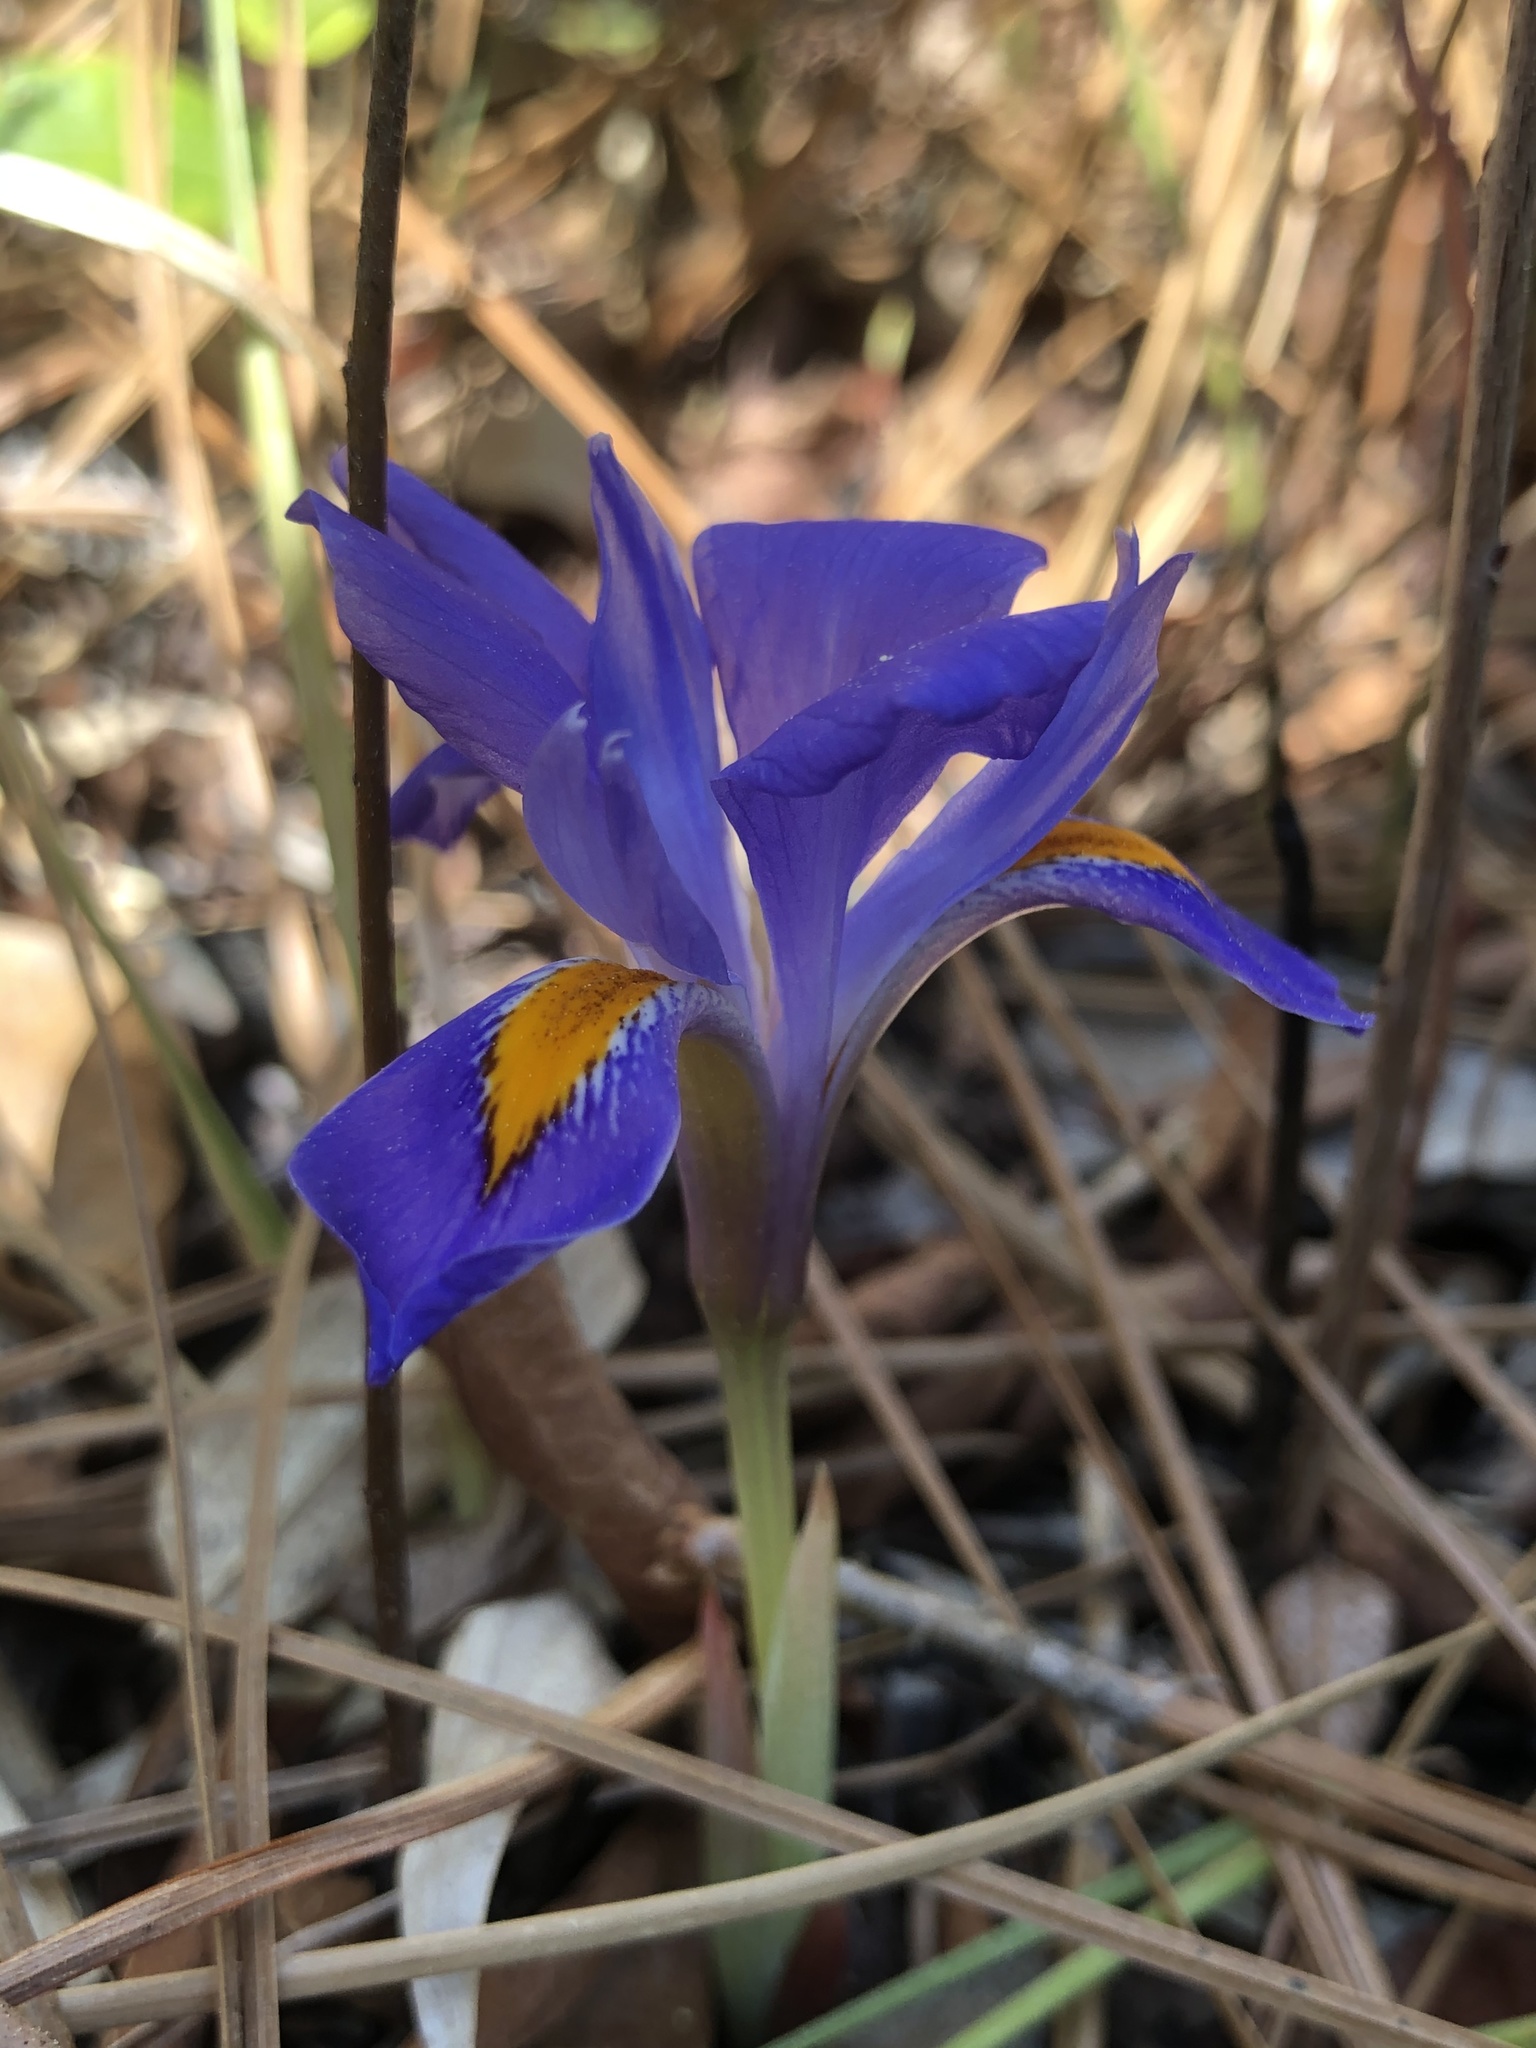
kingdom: Plantae
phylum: Tracheophyta
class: Liliopsida
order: Asparagales
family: Iridaceae
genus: Iris
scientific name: Iris verna
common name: Dwarf iris
